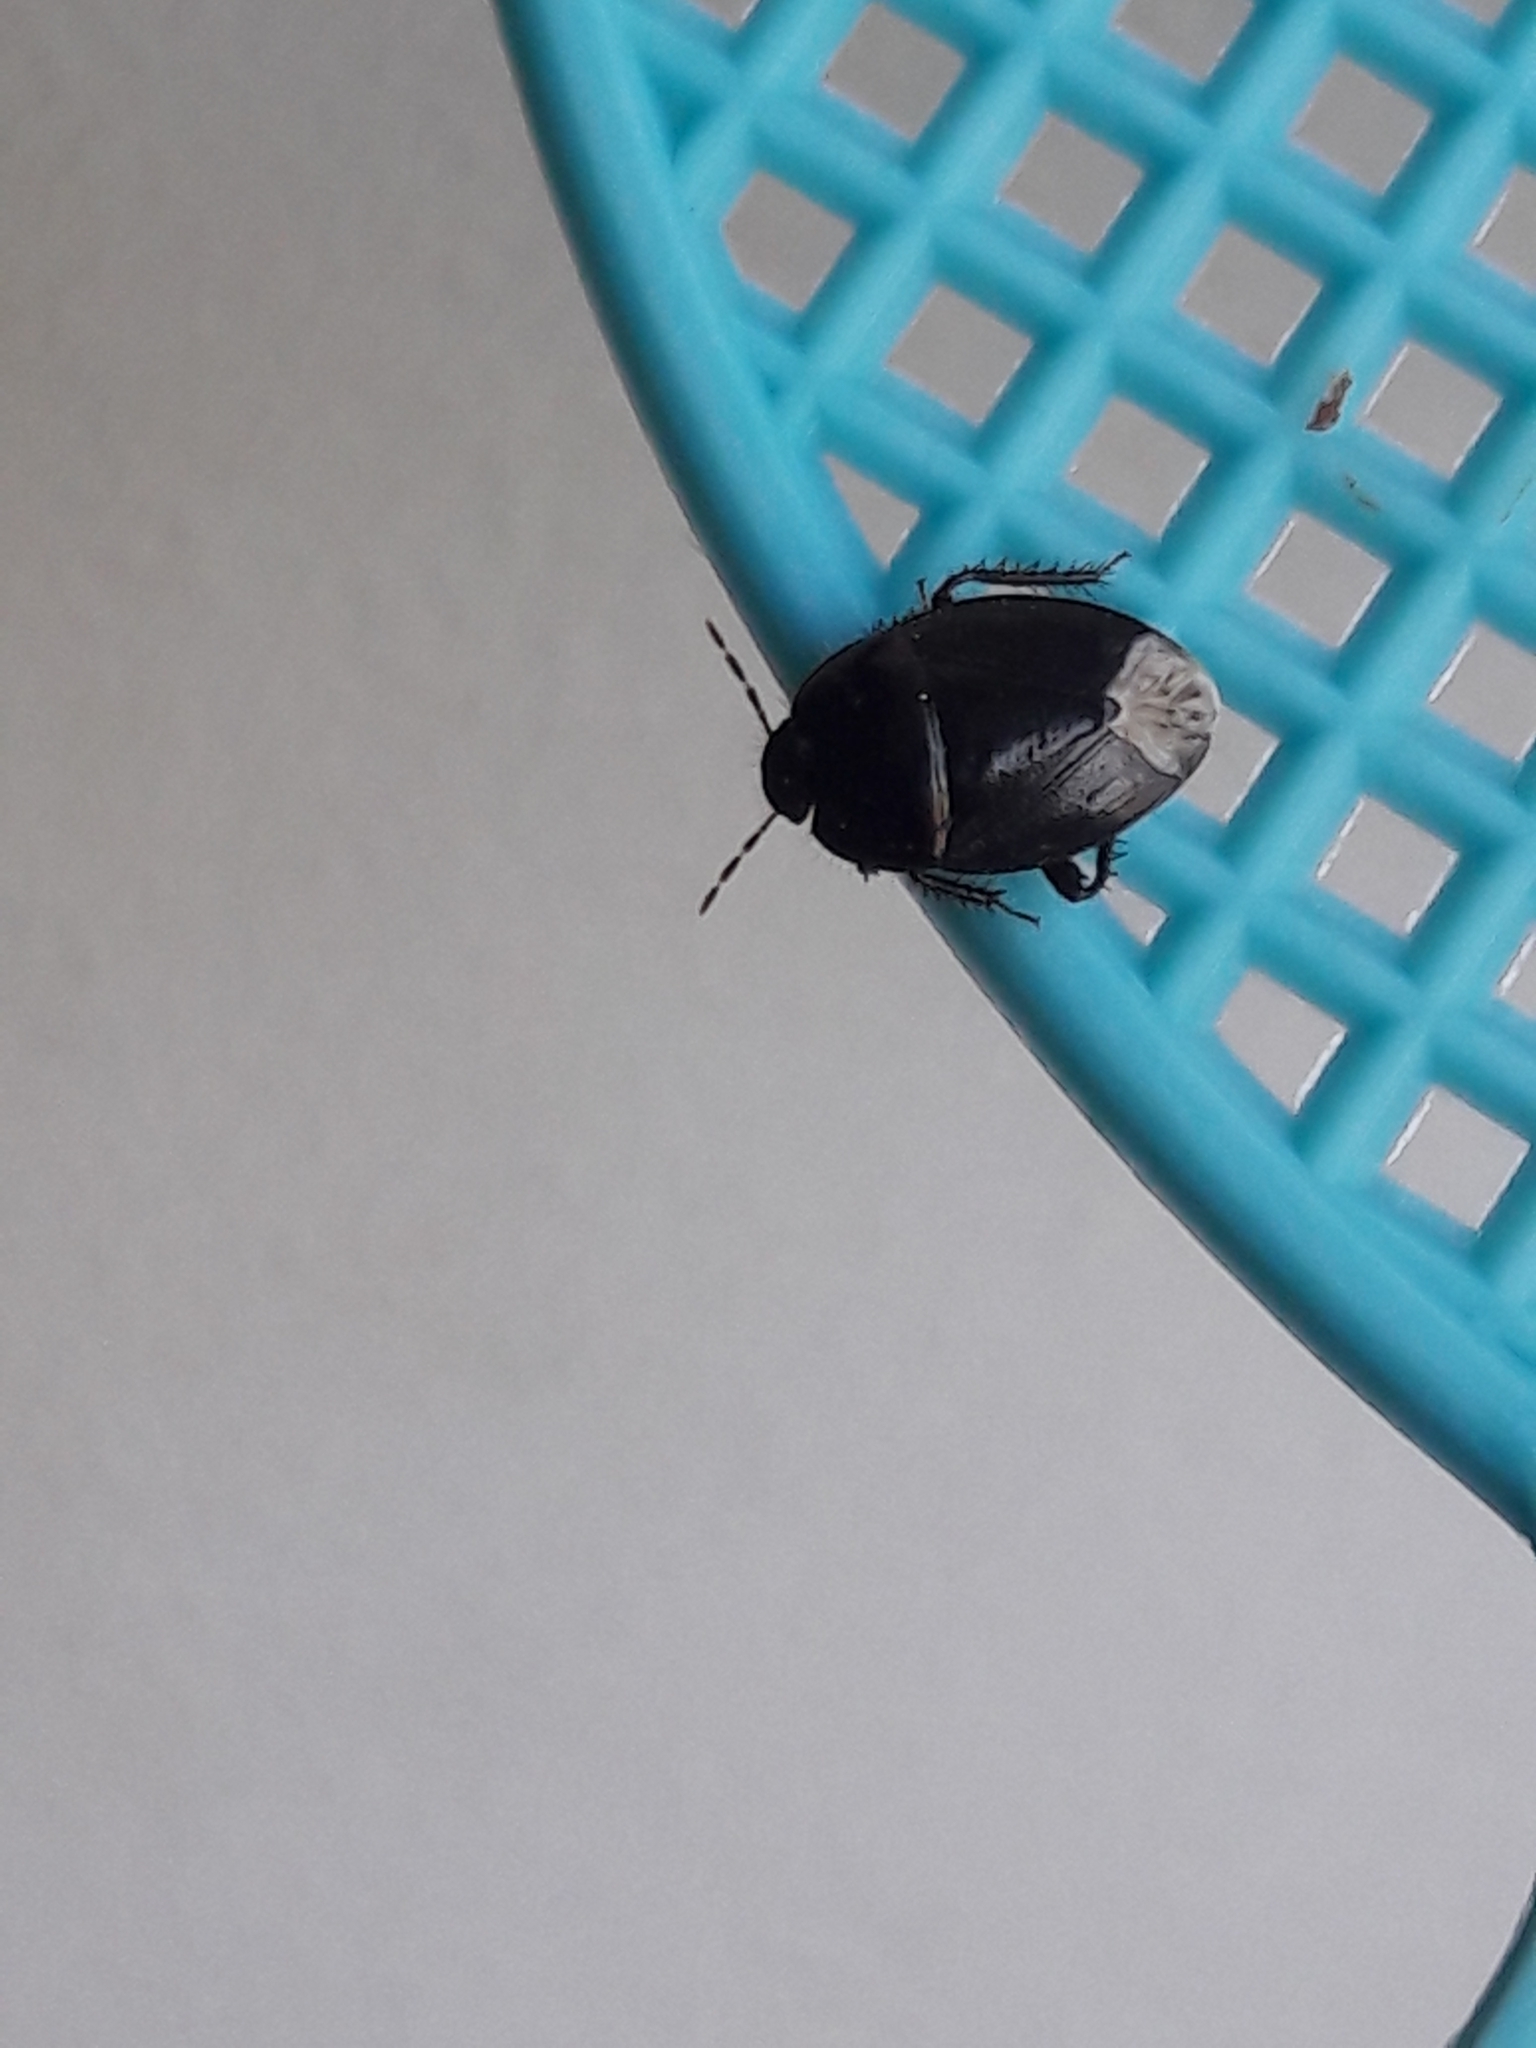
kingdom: Animalia
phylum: Arthropoda
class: Insecta
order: Hemiptera
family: Cydnidae
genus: Macroscytus
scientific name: Macroscytus brunneus
